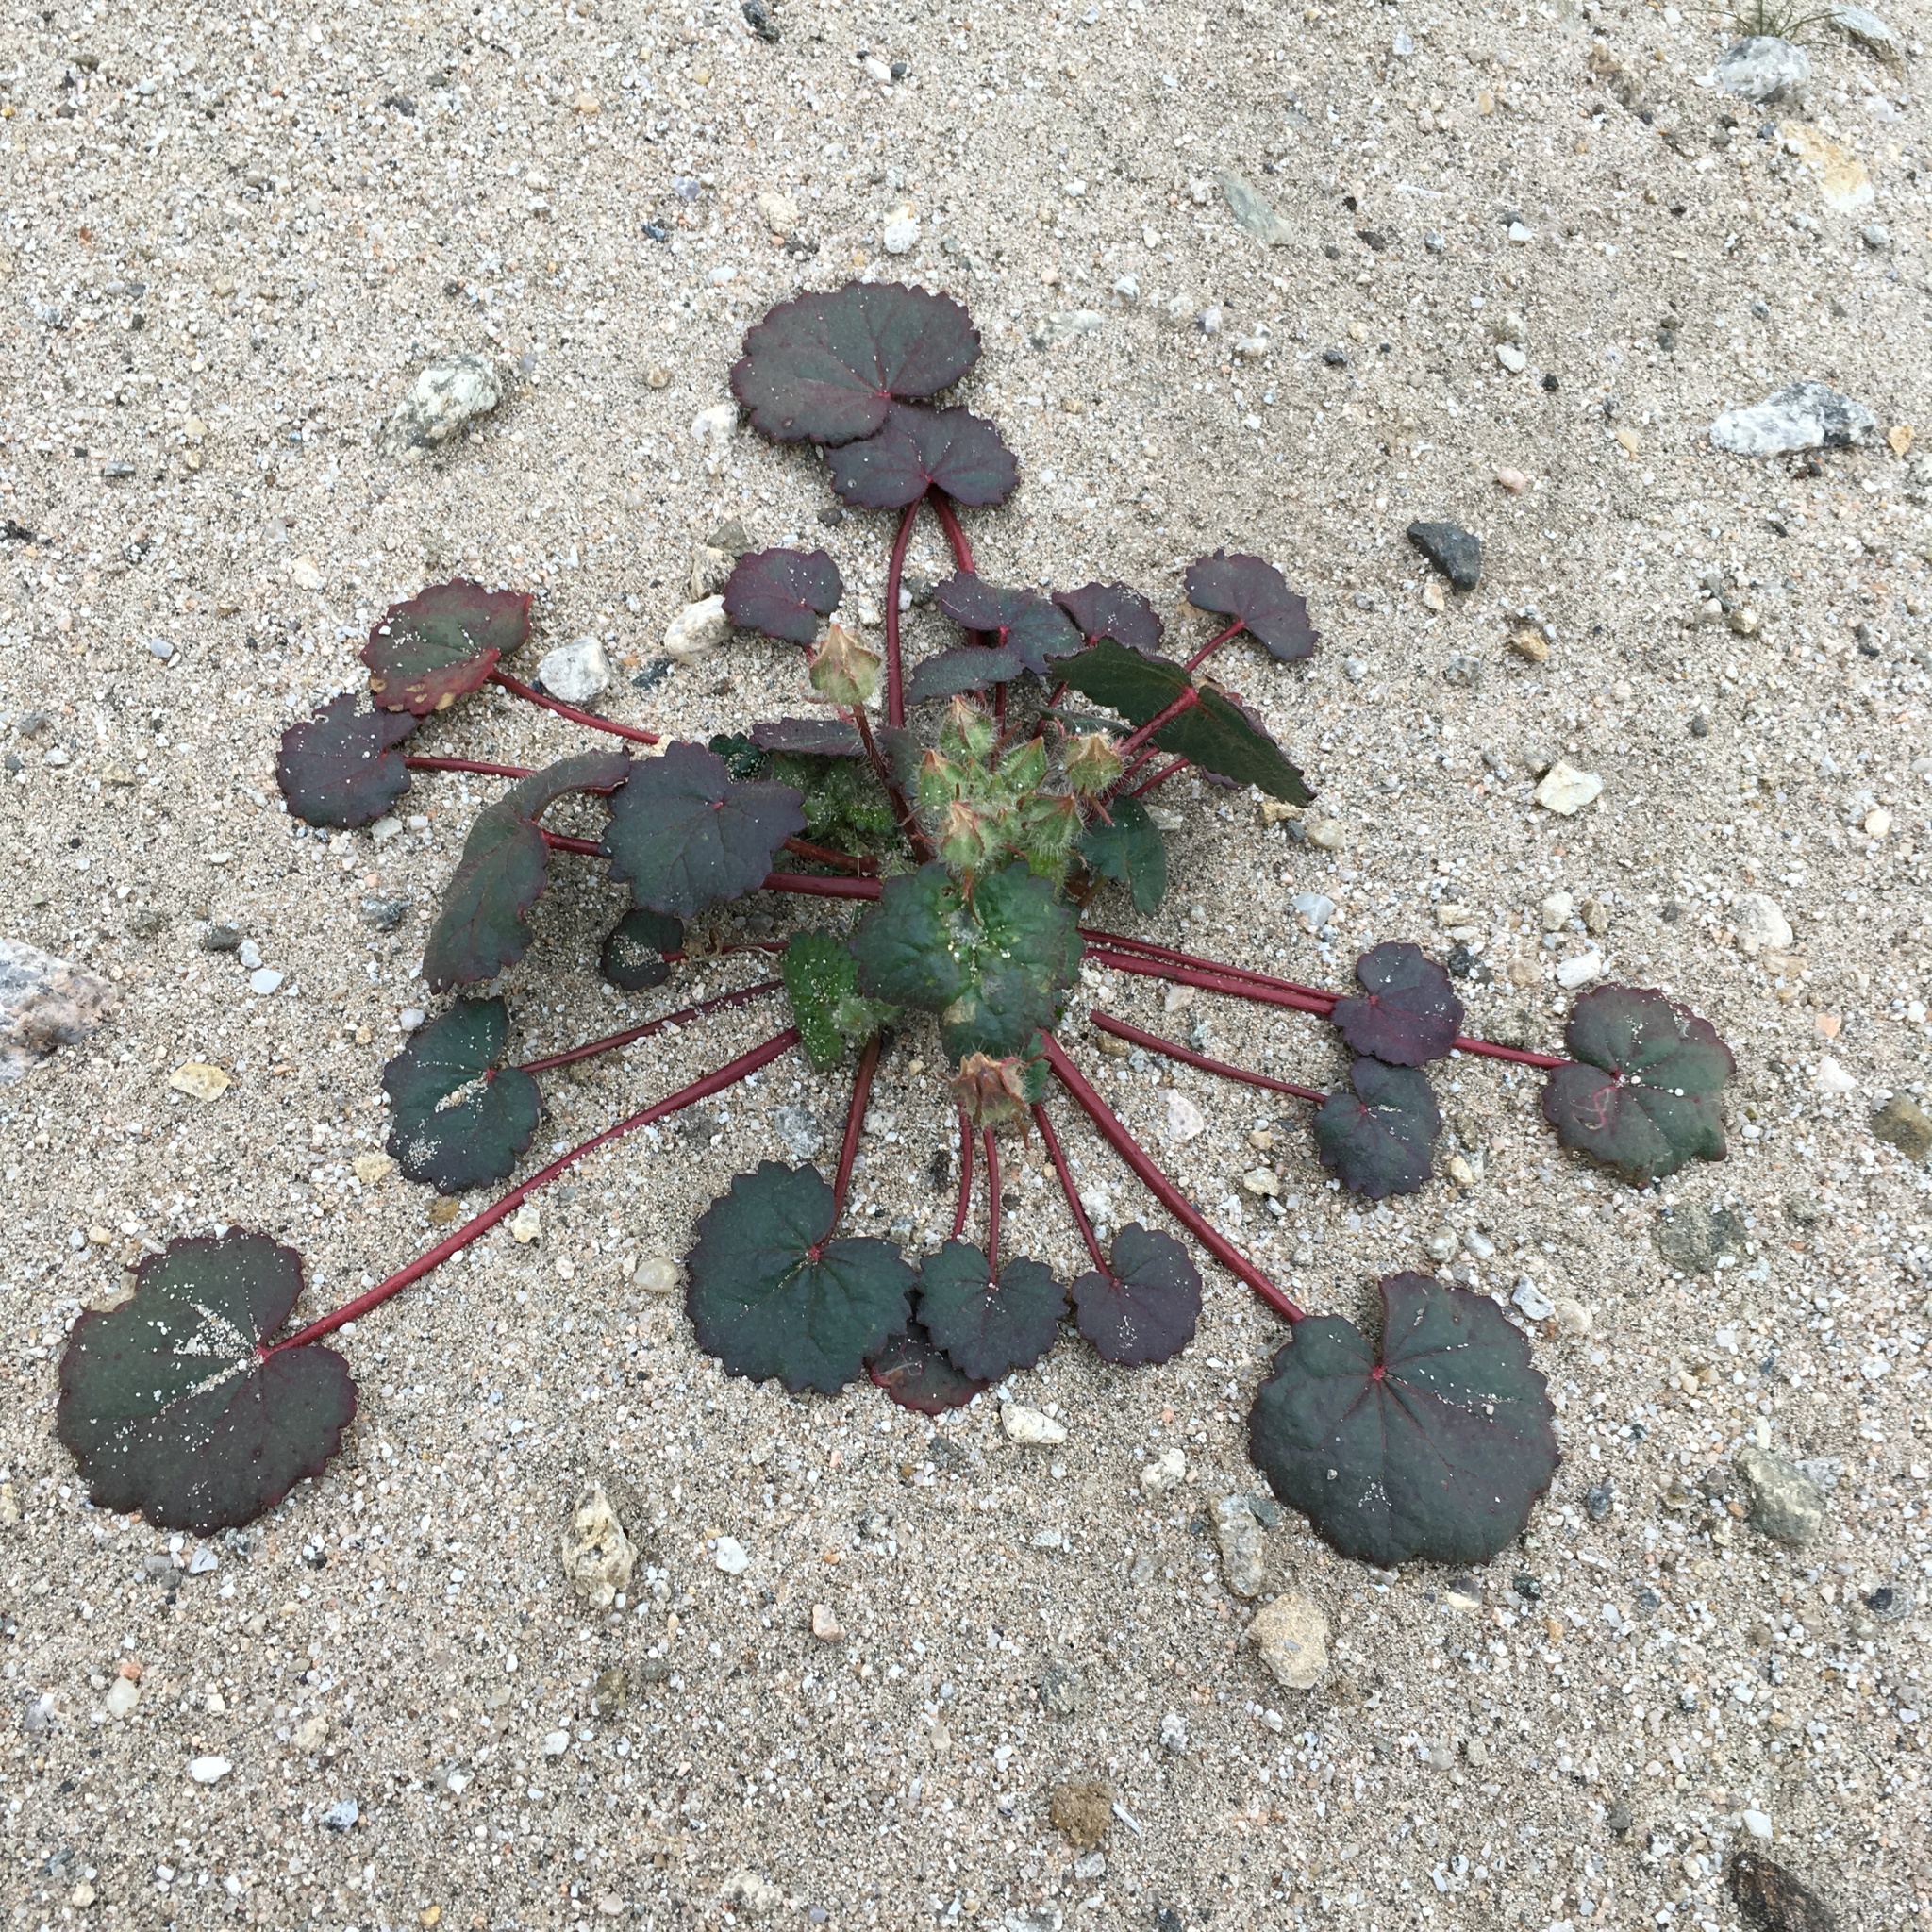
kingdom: Plantae
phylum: Tracheophyta
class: Magnoliopsida
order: Malvales
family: Malvaceae
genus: Eremalche
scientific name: Eremalche rotundifolia
